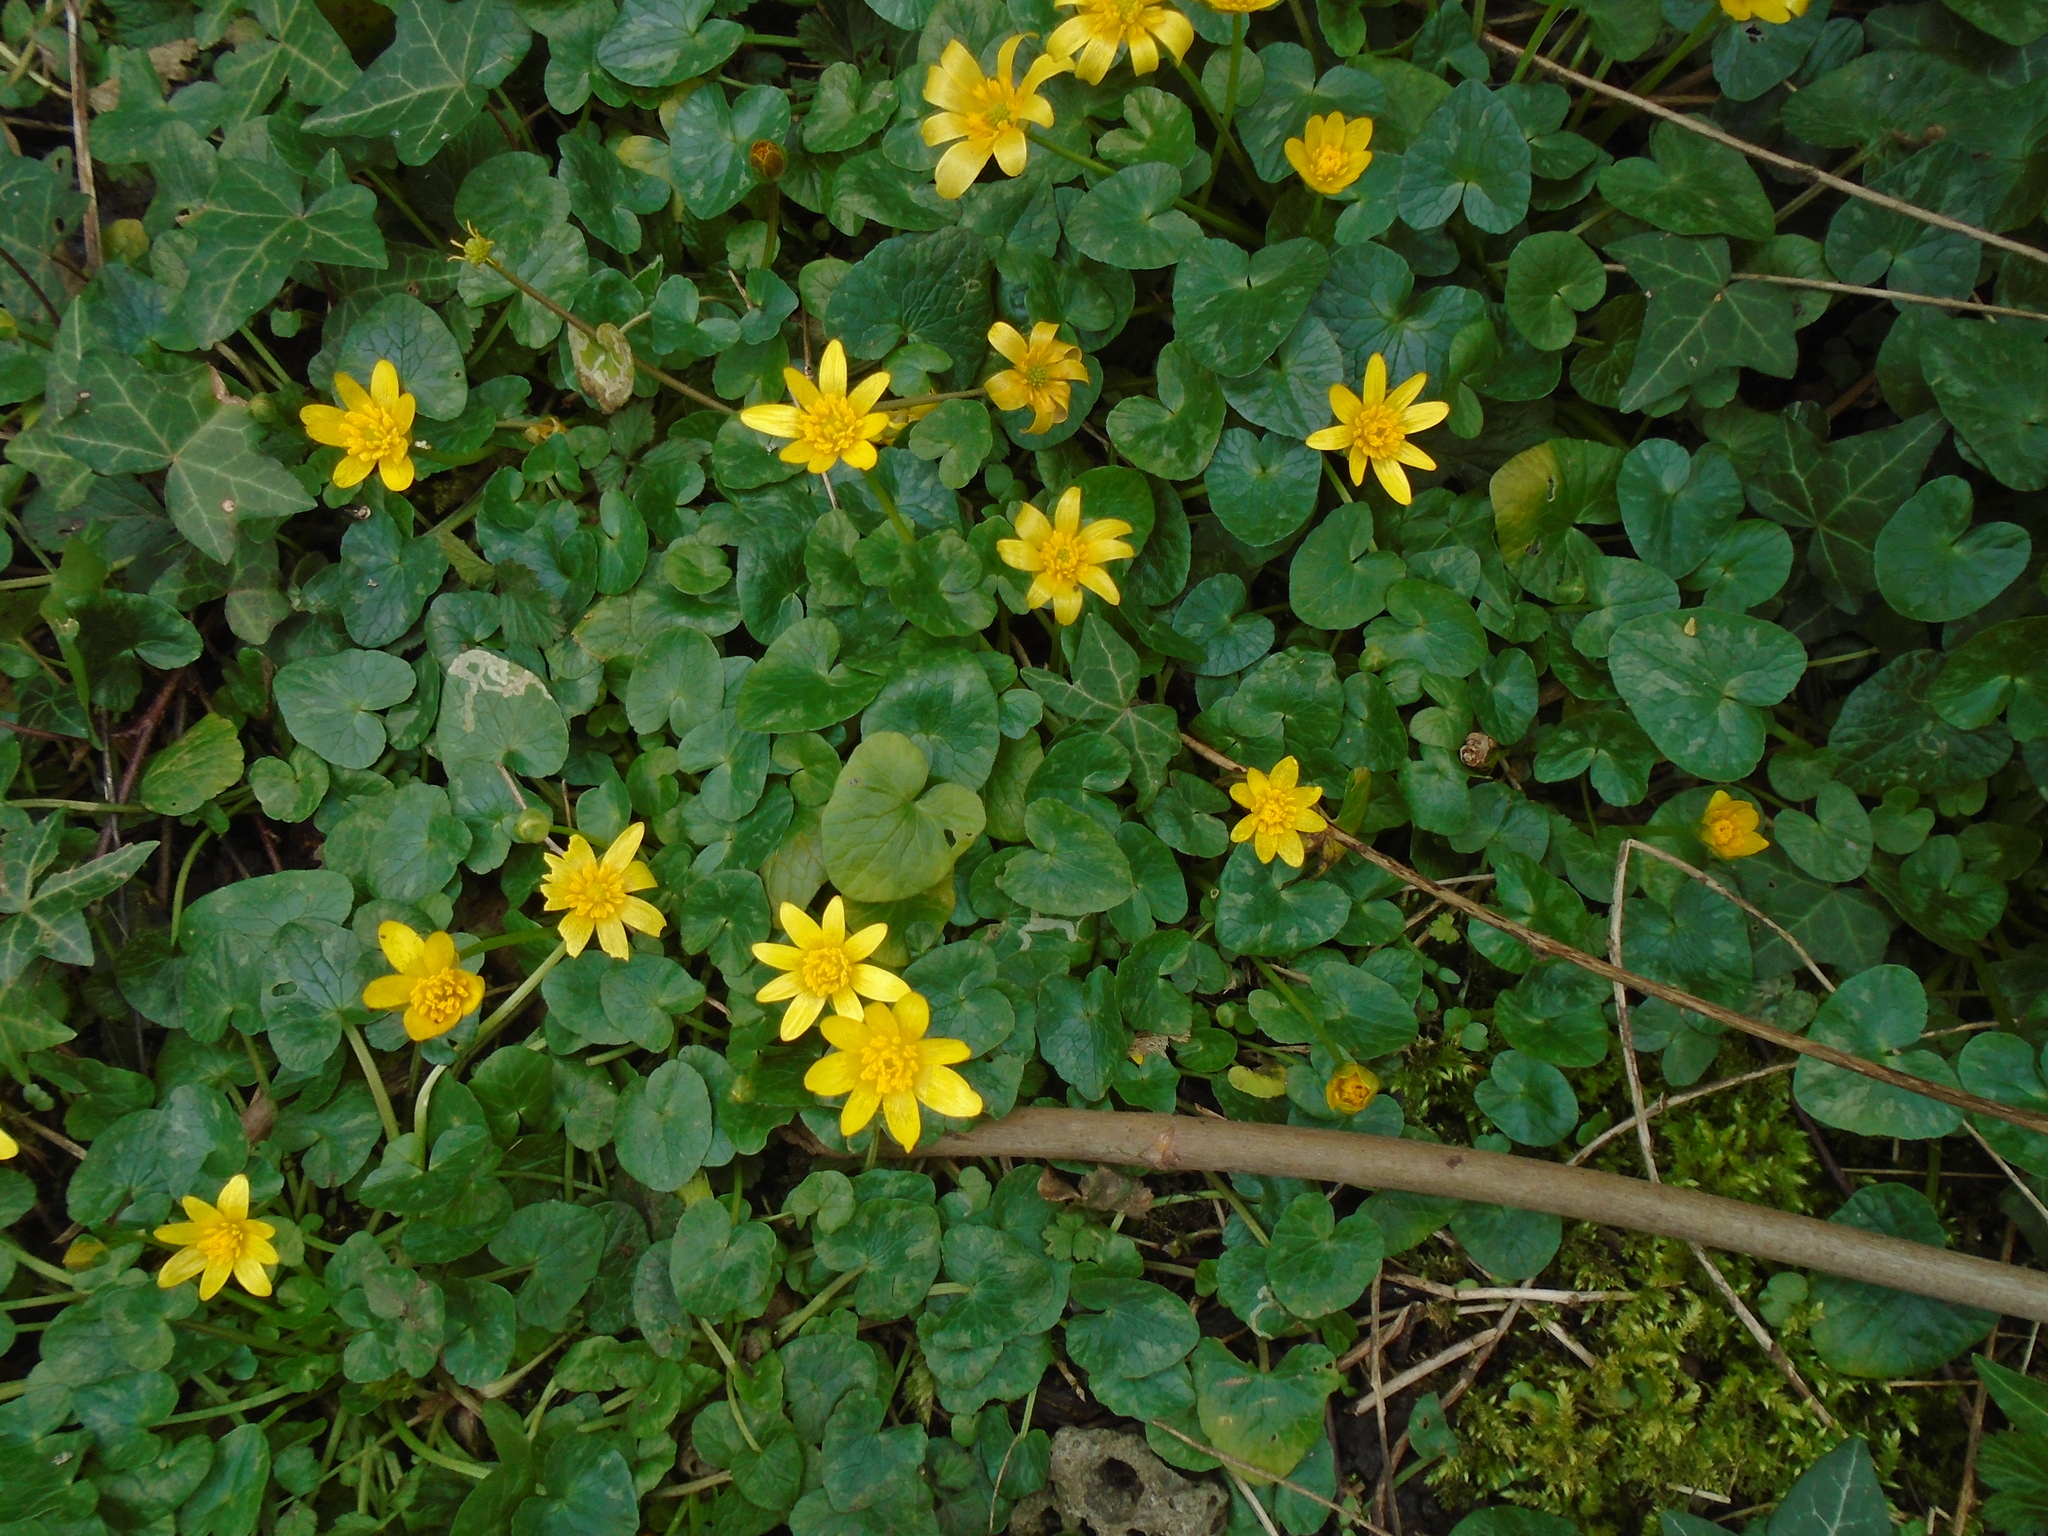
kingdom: Plantae
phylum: Tracheophyta
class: Magnoliopsida
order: Ranunculales
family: Ranunculaceae
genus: Ficaria
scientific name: Ficaria verna
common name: Lesser celandine
